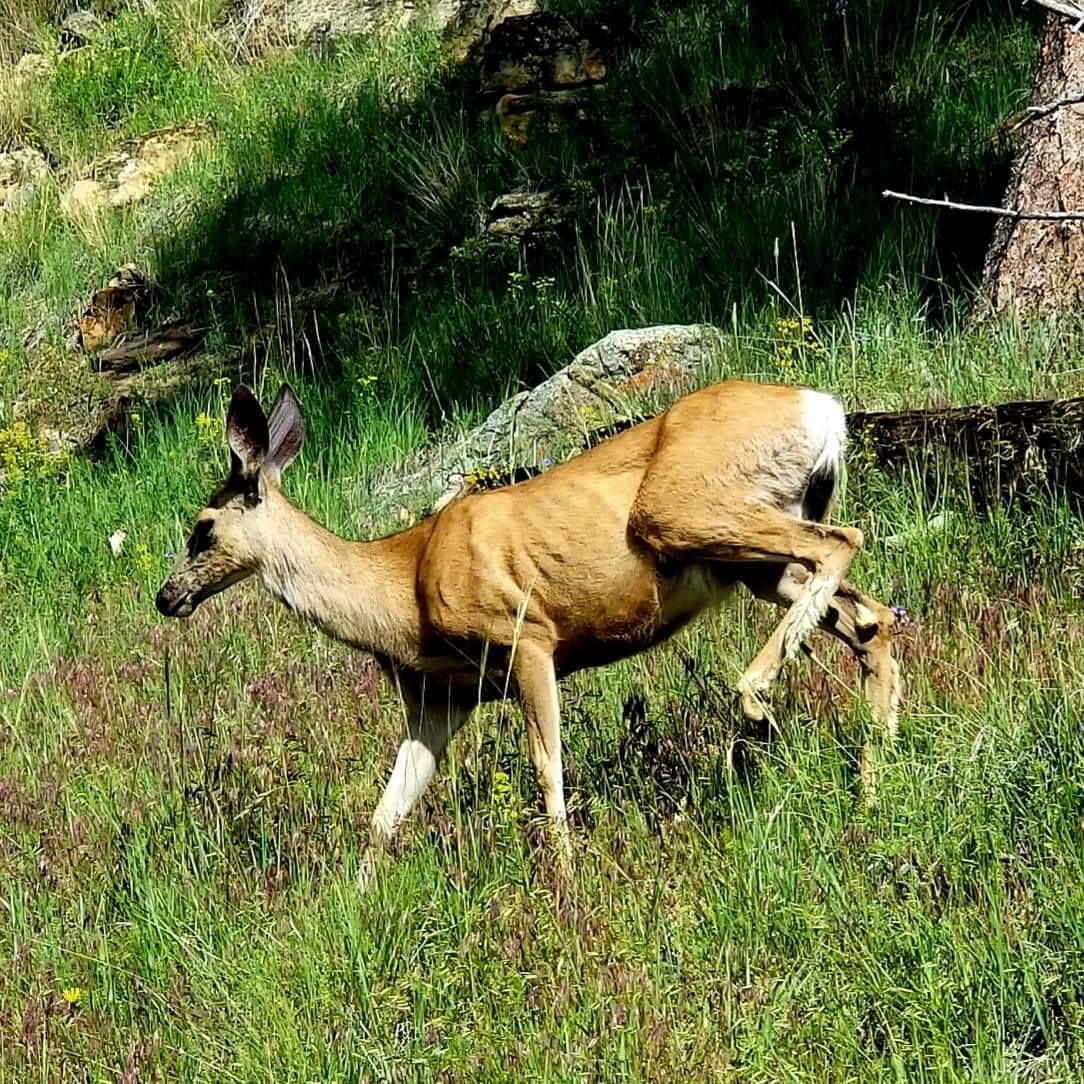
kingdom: Animalia
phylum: Chordata
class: Mammalia
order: Artiodactyla
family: Cervidae
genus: Odocoileus
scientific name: Odocoileus hemionus
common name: Mule deer
